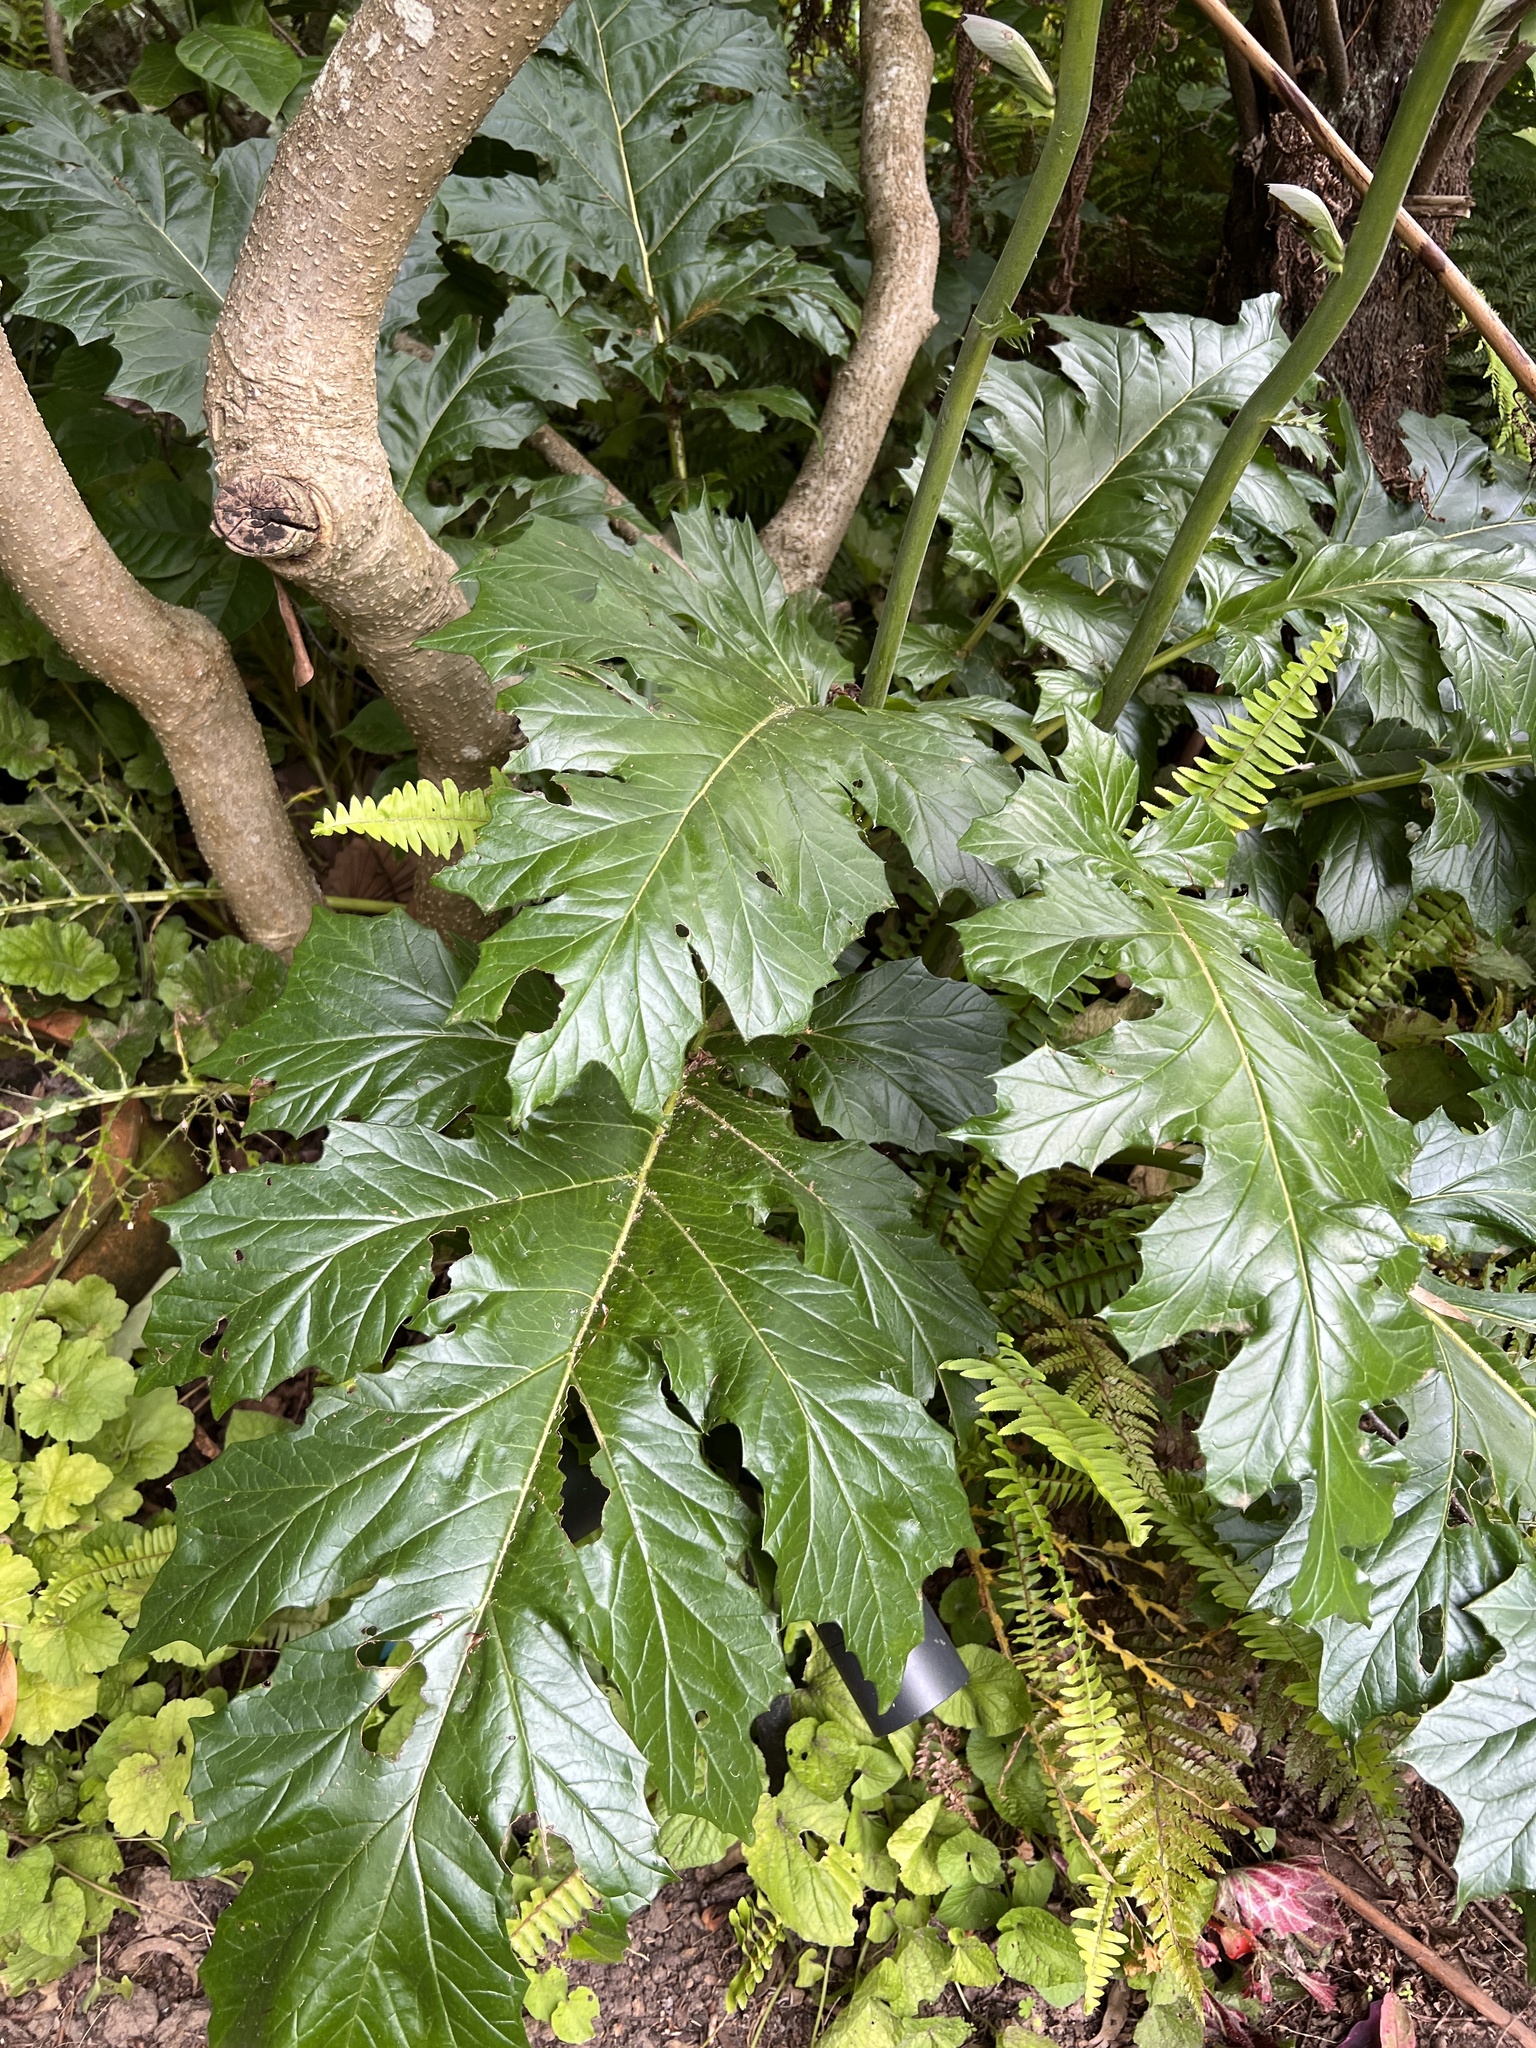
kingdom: Plantae
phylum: Tracheophyta
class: Magnoliopsida
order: Lamiales
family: Acanthaceae
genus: Acanthus
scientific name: Acanthus mollis
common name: Bear's-breech
